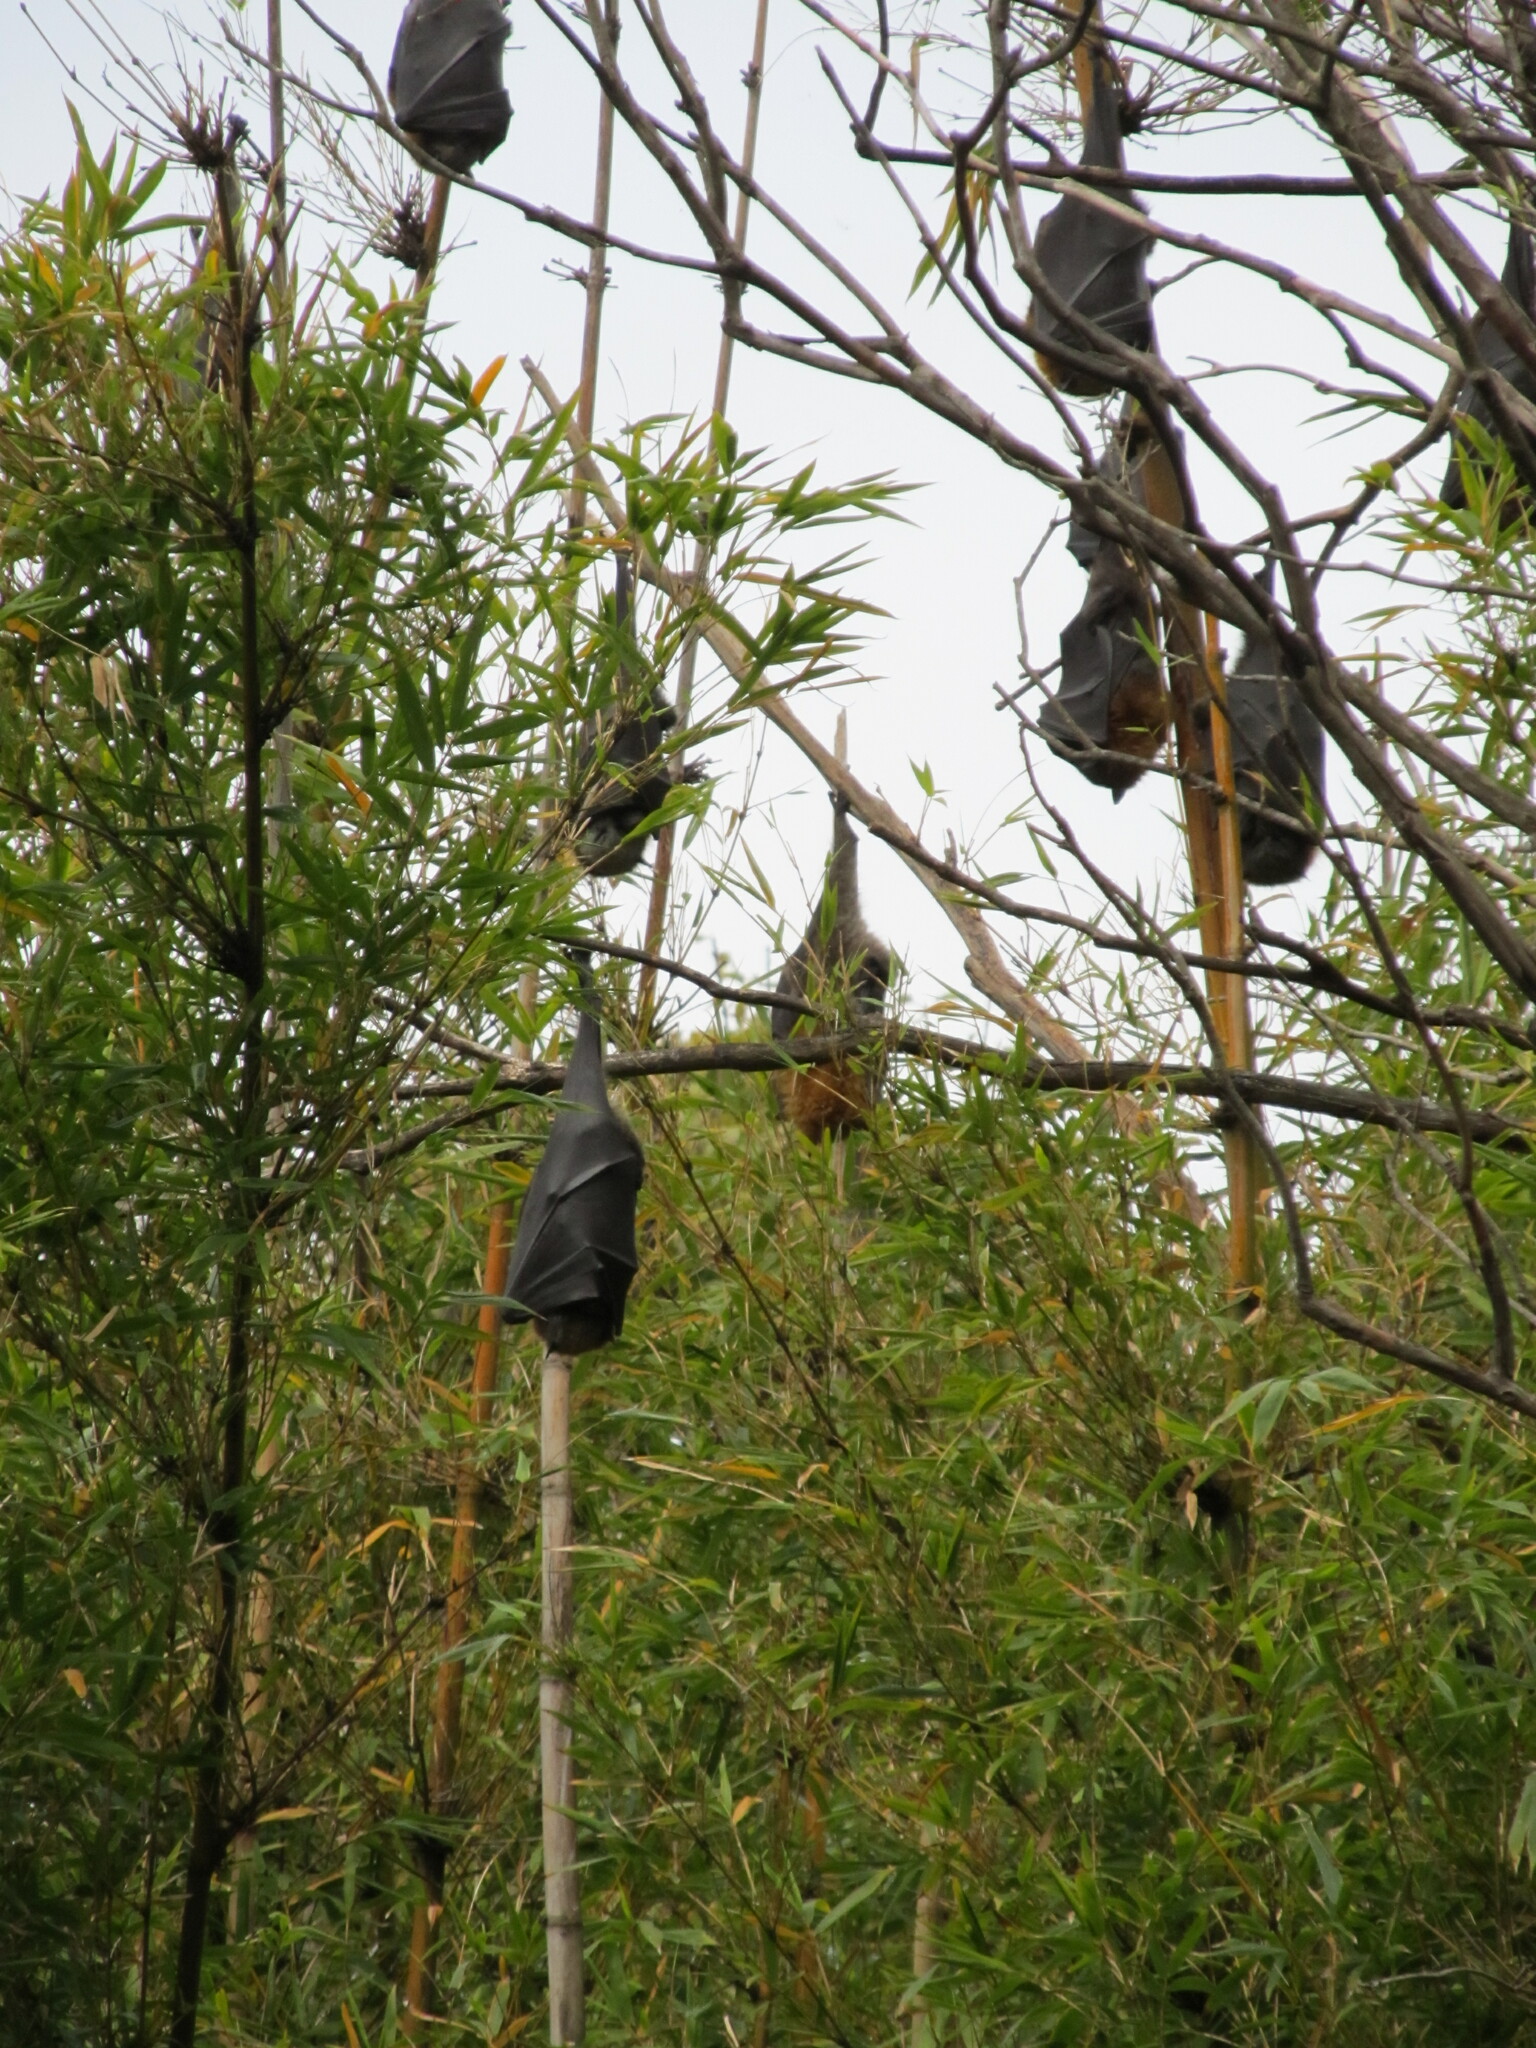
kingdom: Animalia
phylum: Chordata
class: Mammalia
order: Chiroptera
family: Pteropodidae
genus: Pteropus
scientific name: Pteropus poliocephalus
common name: Gray-headed flying fox
